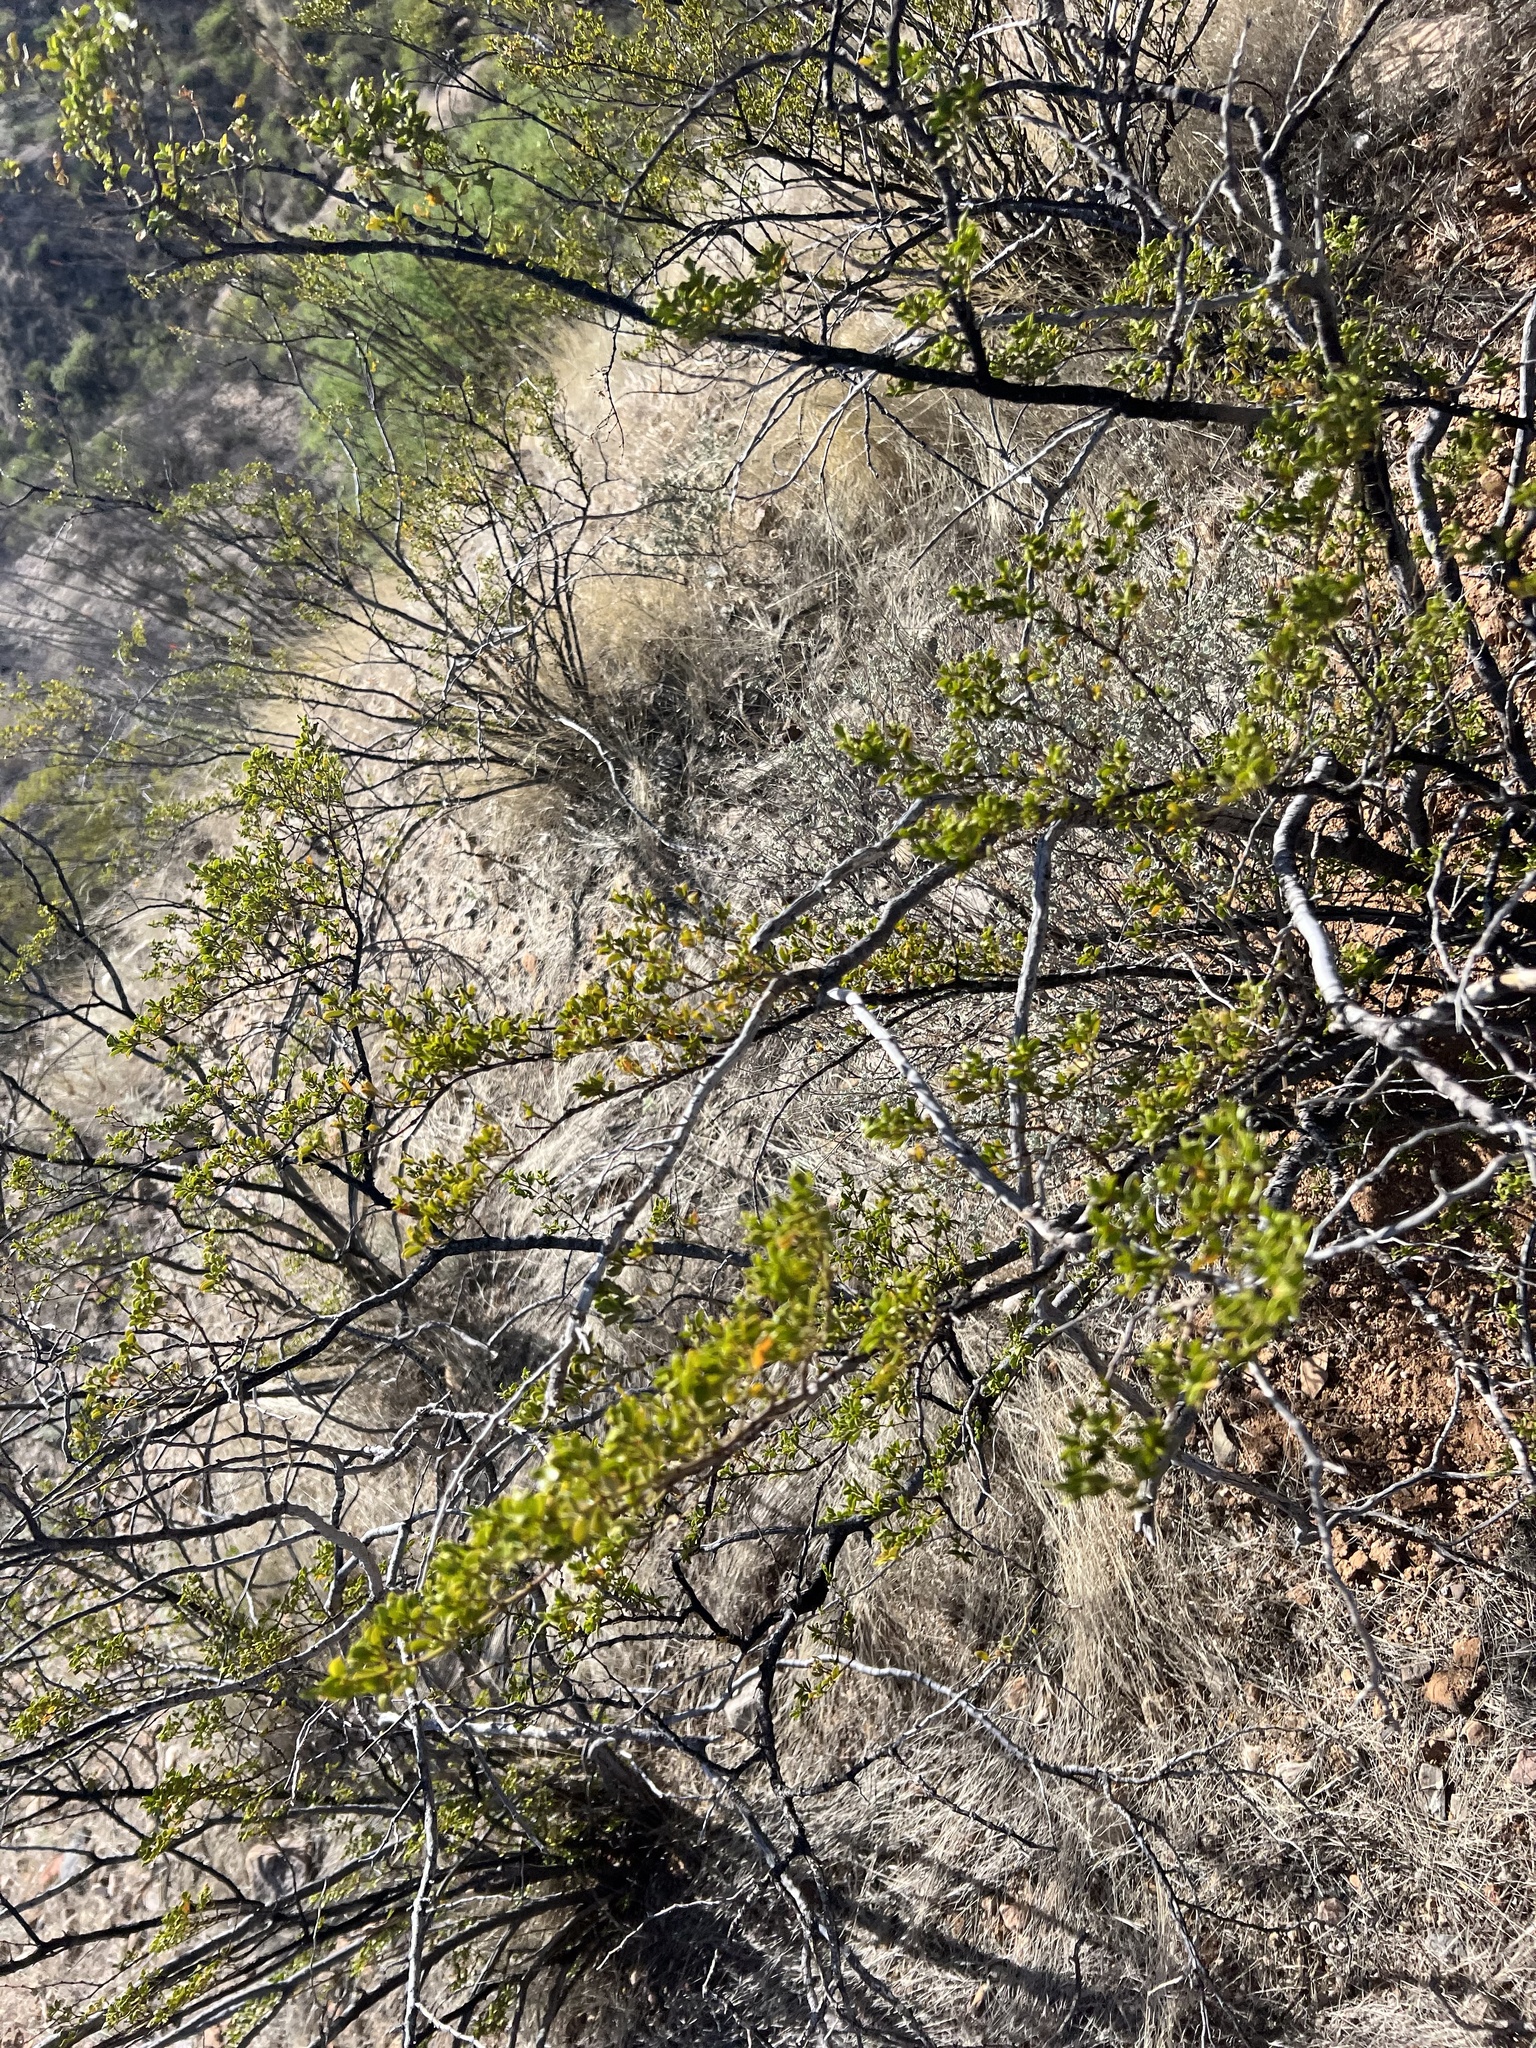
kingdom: Plantae
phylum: Tracheophyta
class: Magnoliopsida
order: Zygophyllales
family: Zygophyllaceae
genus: Larrea
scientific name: Larrea tridentata
